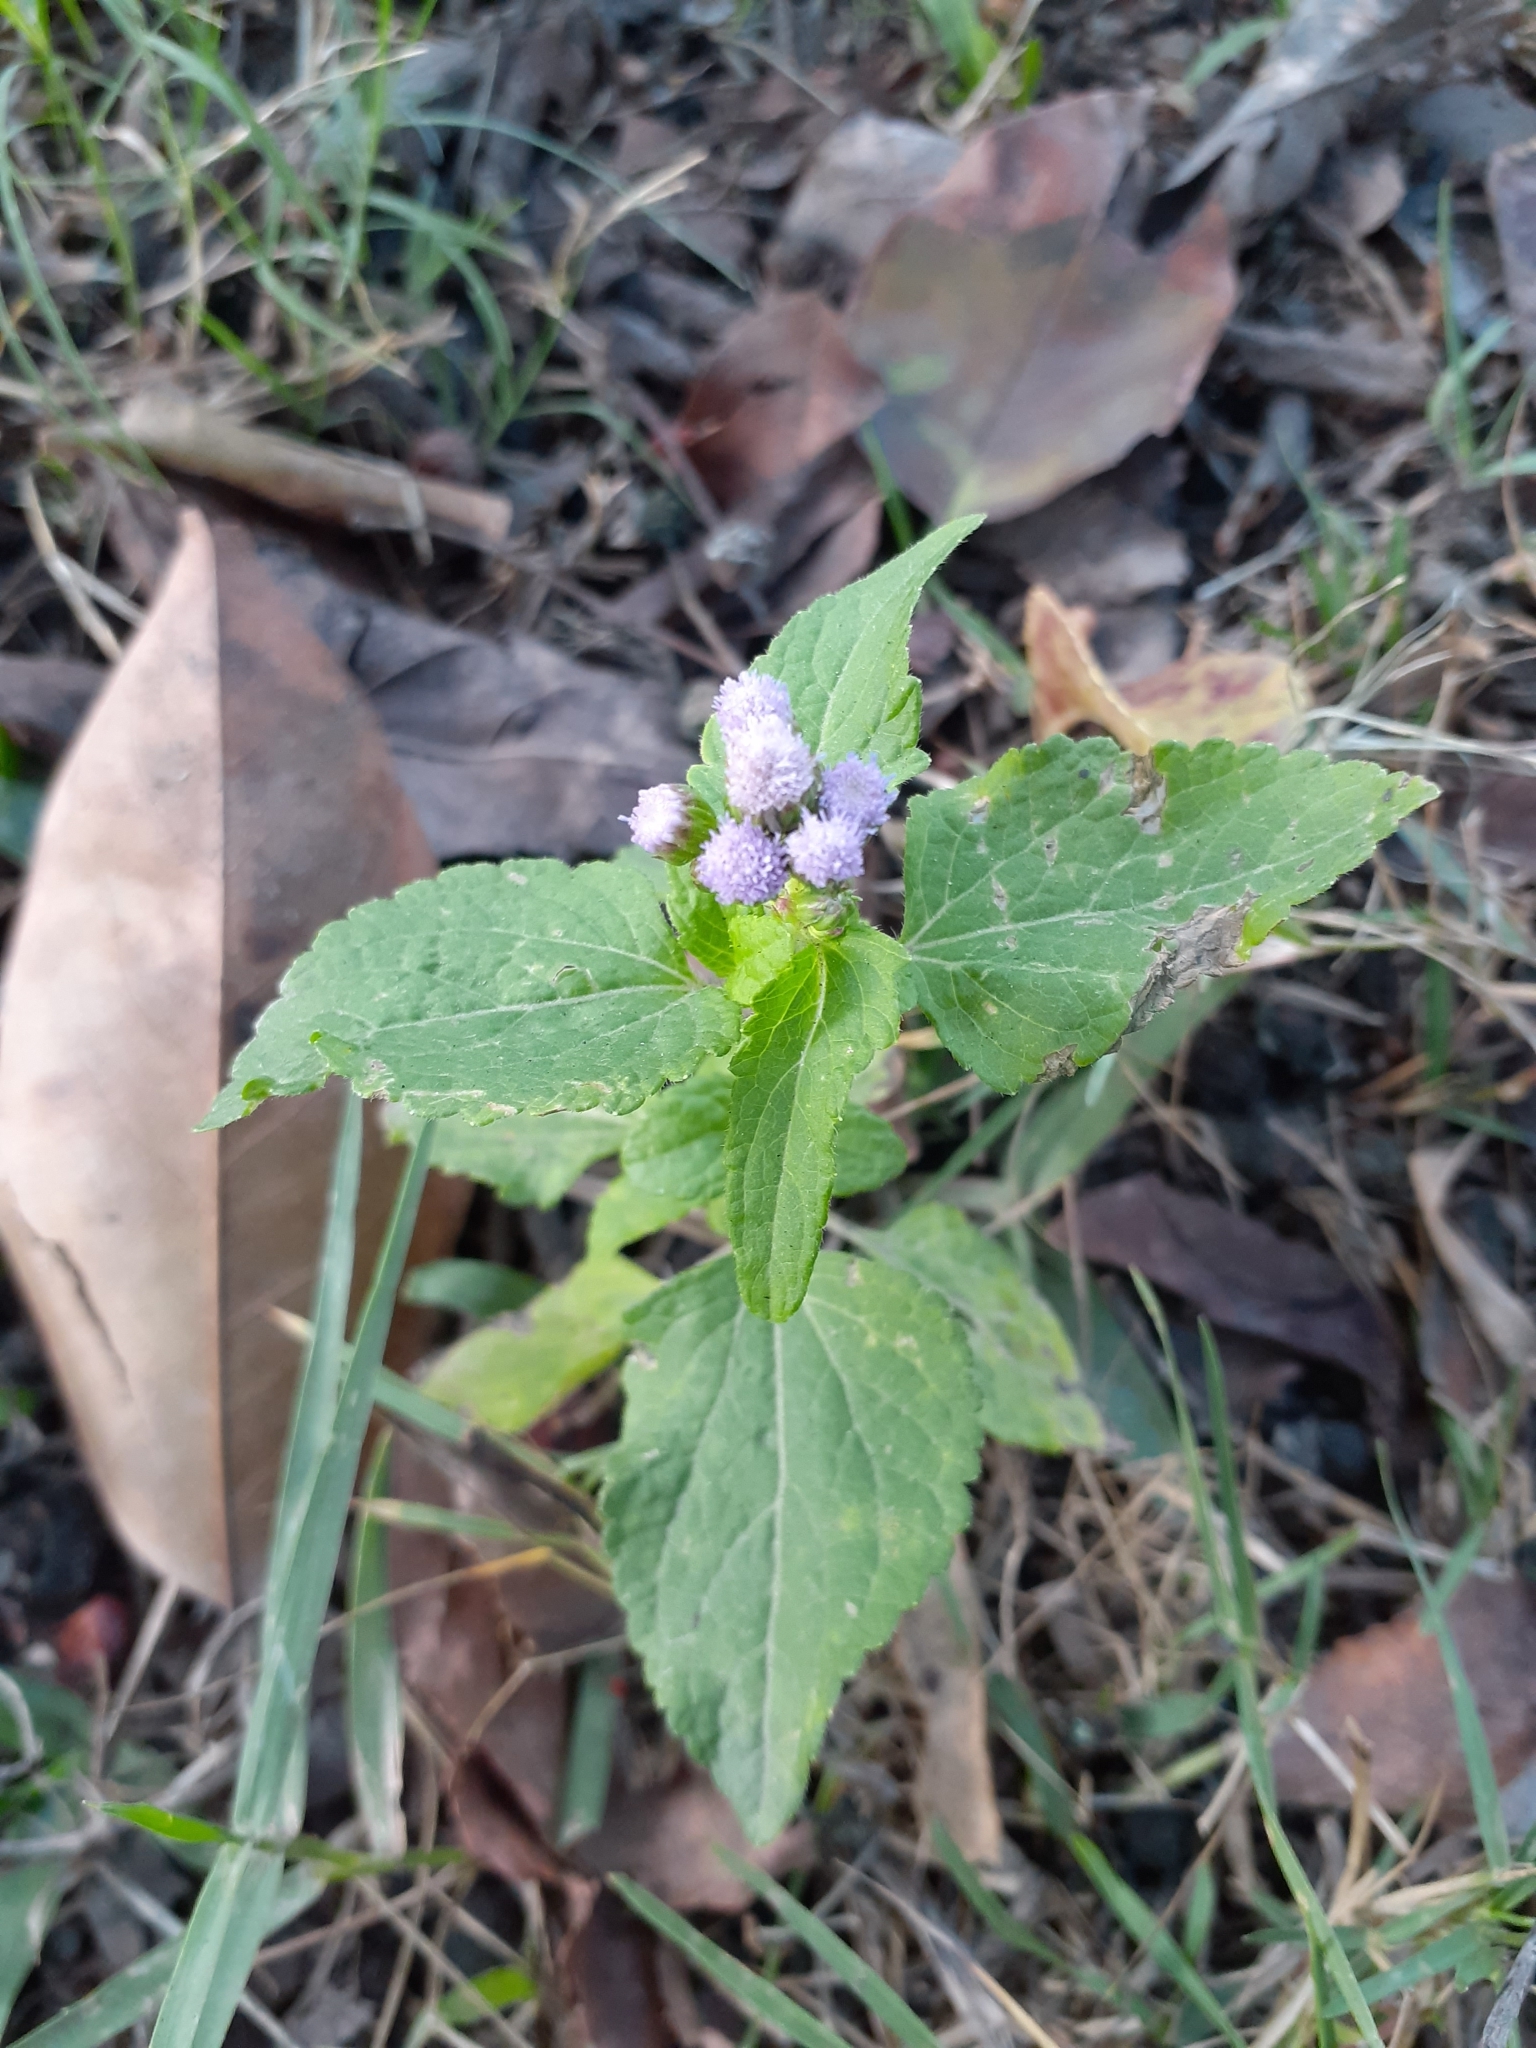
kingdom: Plantae
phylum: Tracheophyta
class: Magnoliopsida
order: Asterales
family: Asteraceae
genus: Ageratum
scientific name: Ageratum houstonianum
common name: Bluemink
